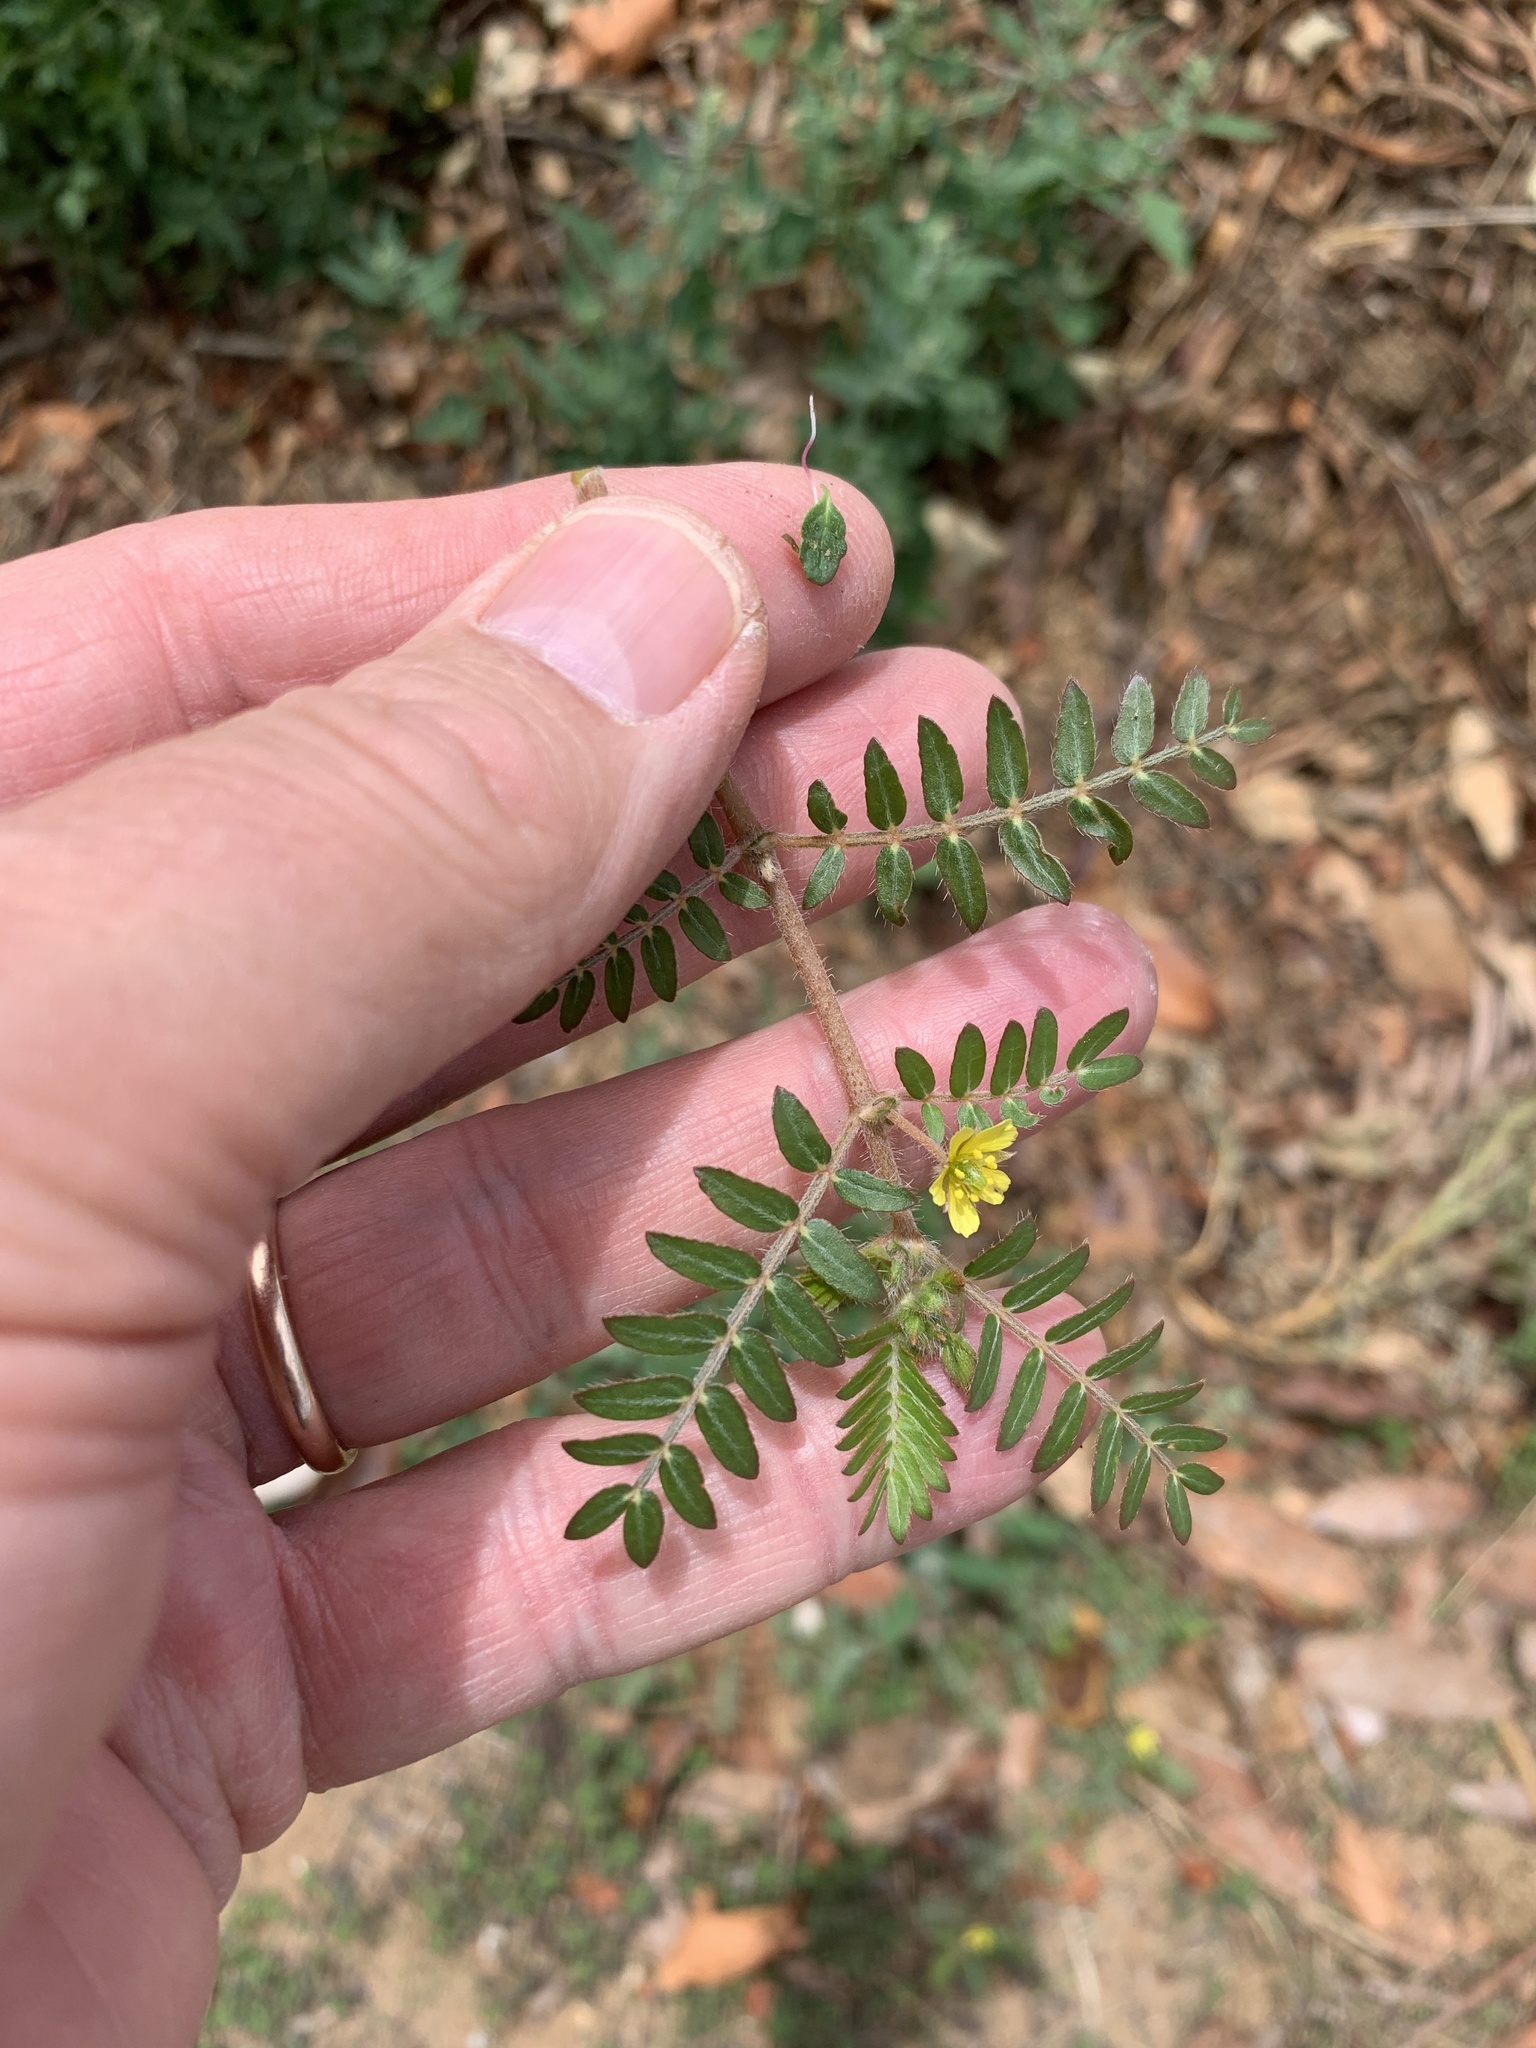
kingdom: Plantae
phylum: Tracheophyta
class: Magnoliopsida
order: Zygophyllales
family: Zygophyllaceae
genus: Tribulus
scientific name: Tribulus terrestris
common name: Puncturevine
